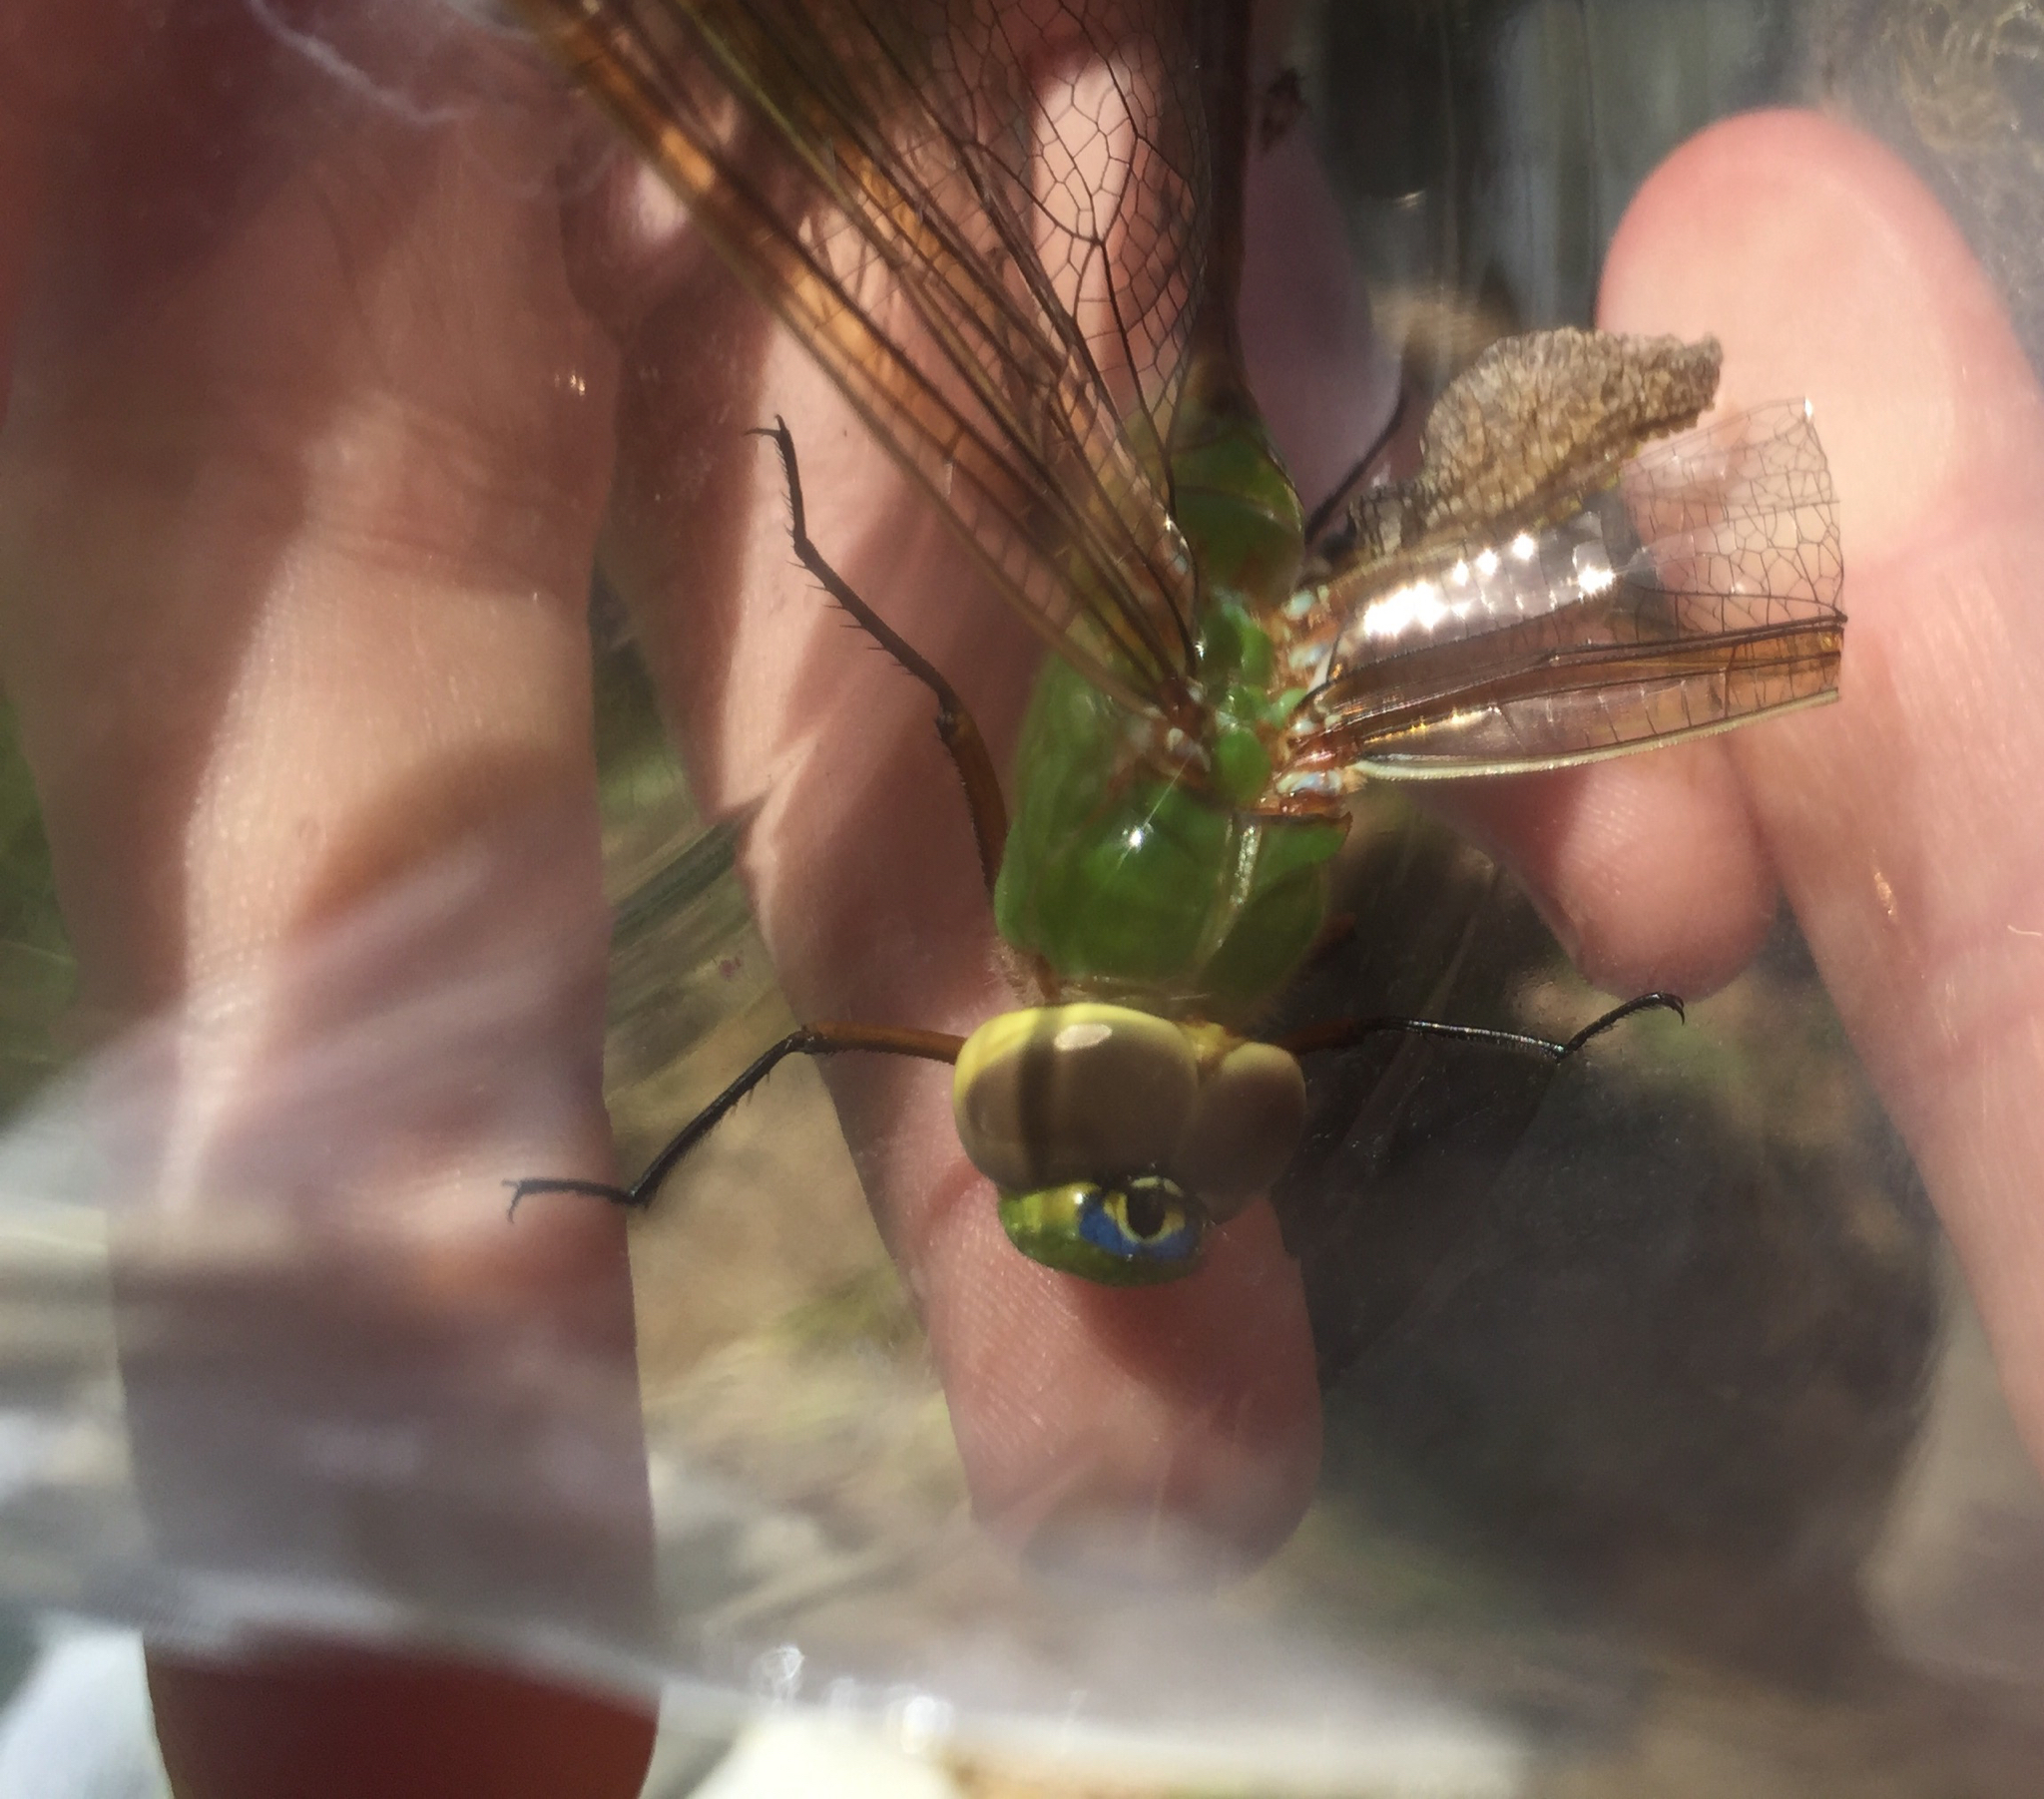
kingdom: Animalia
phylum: Arthropoda
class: Insecta
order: Odonata
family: Aeshnidae
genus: Anax
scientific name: Anax junius
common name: Common green darner
